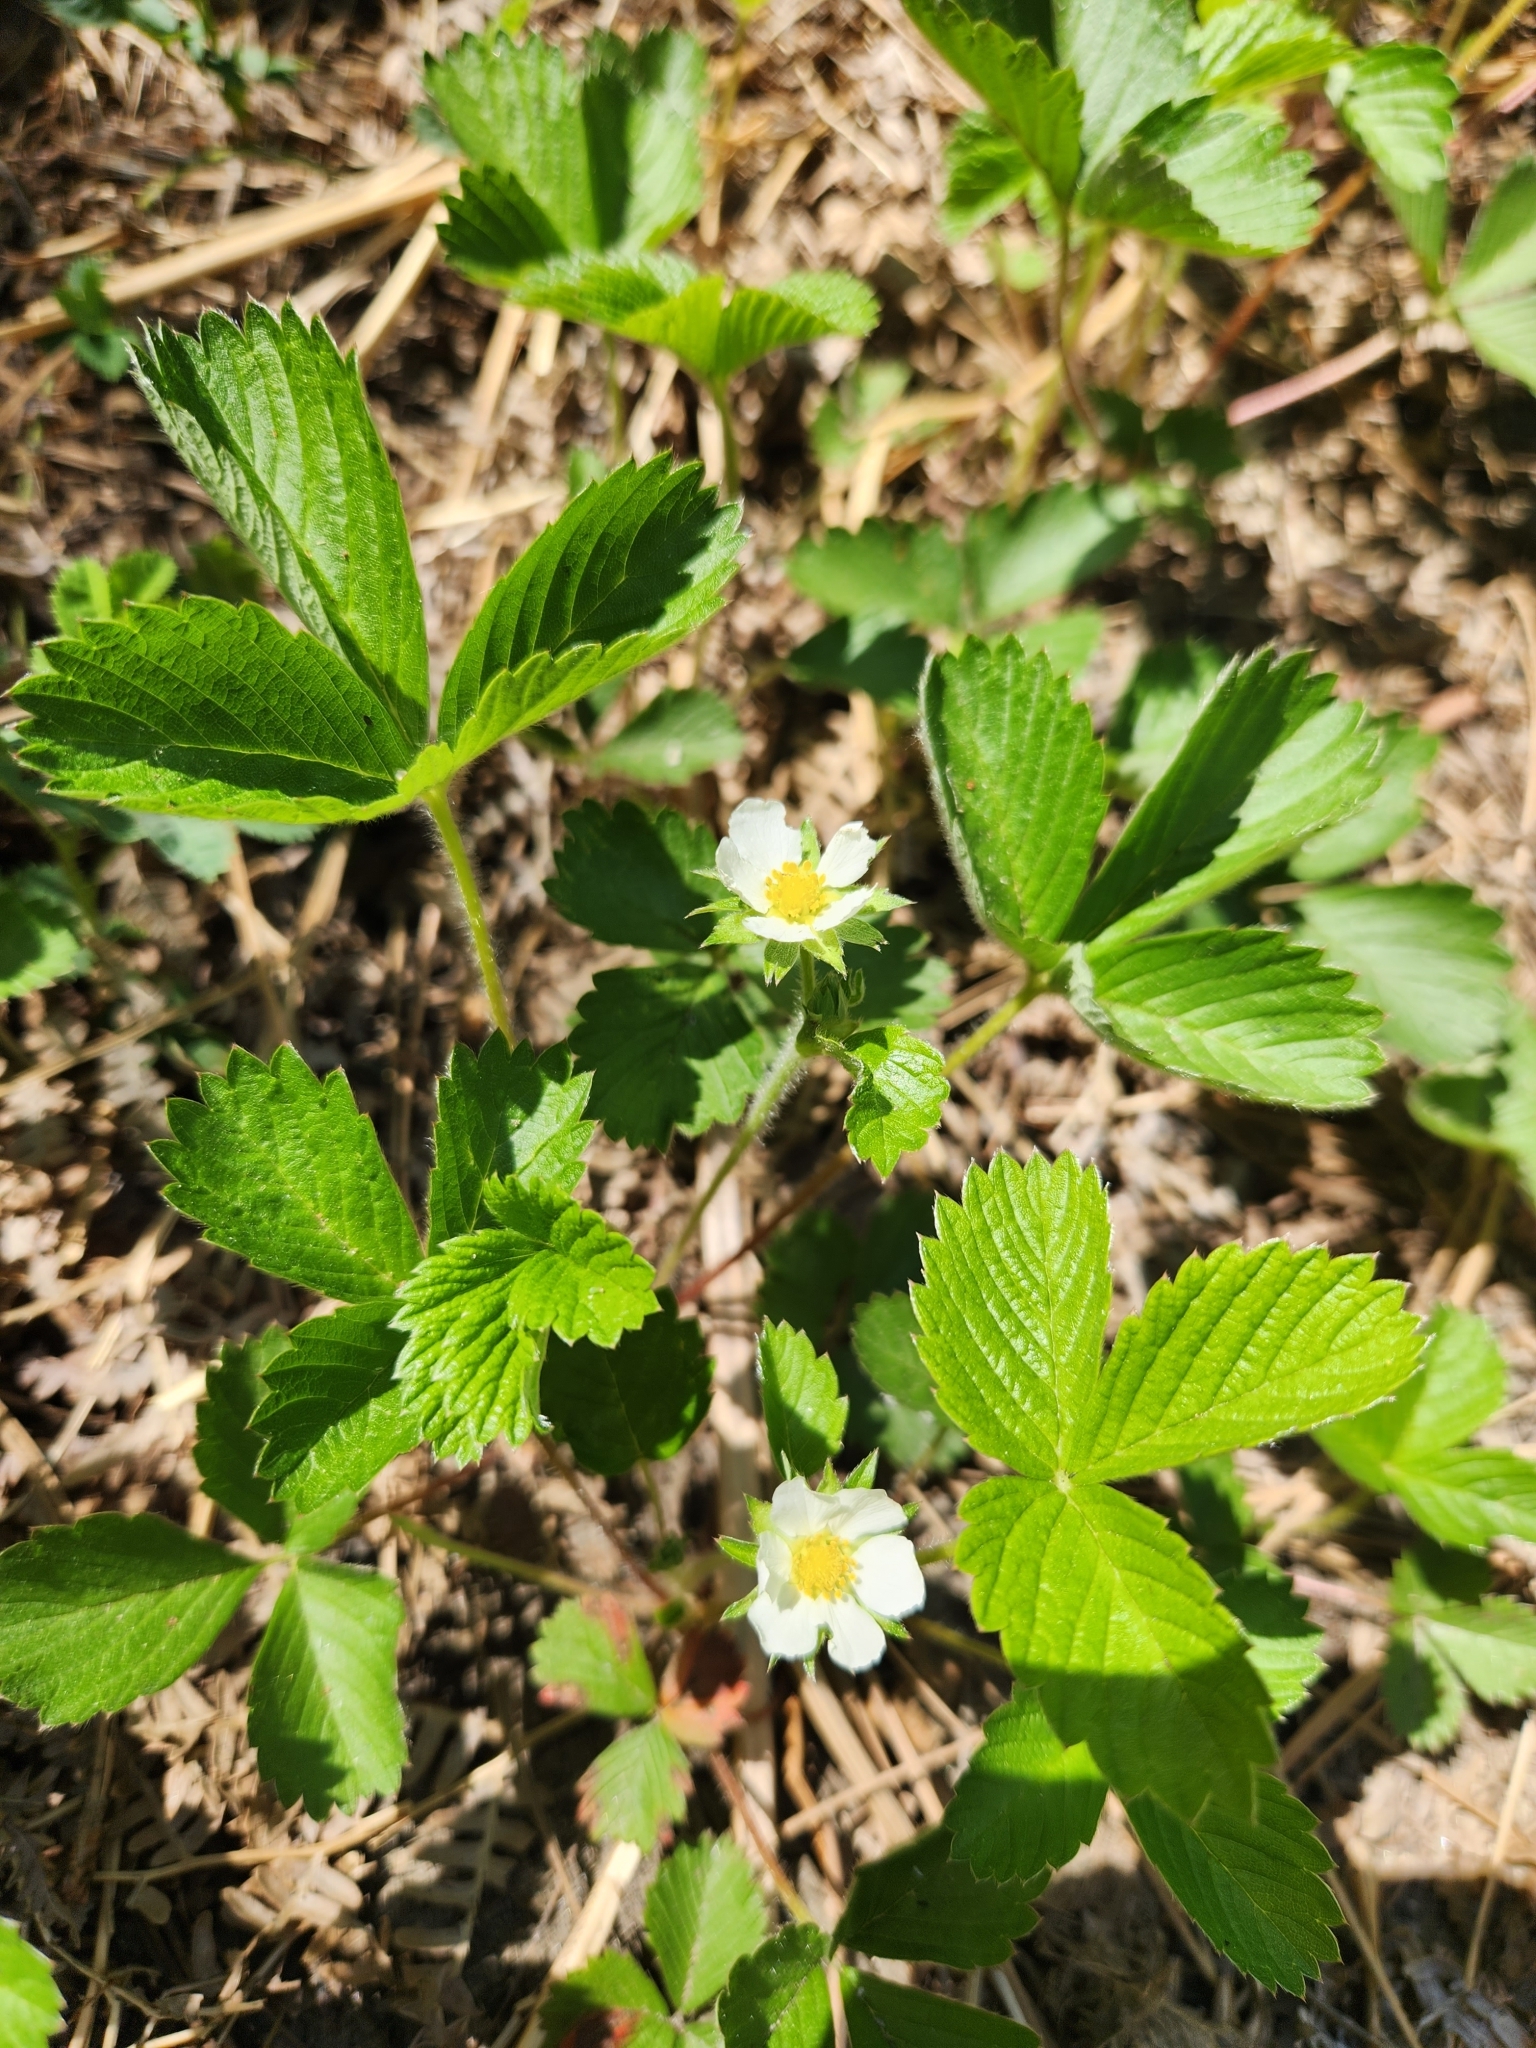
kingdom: Plantae
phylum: Tracheophyta
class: Magnoliopsida
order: Rosales
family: Rosaceae
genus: Fragaria
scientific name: Fragaria vesca
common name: Wild strawberry
